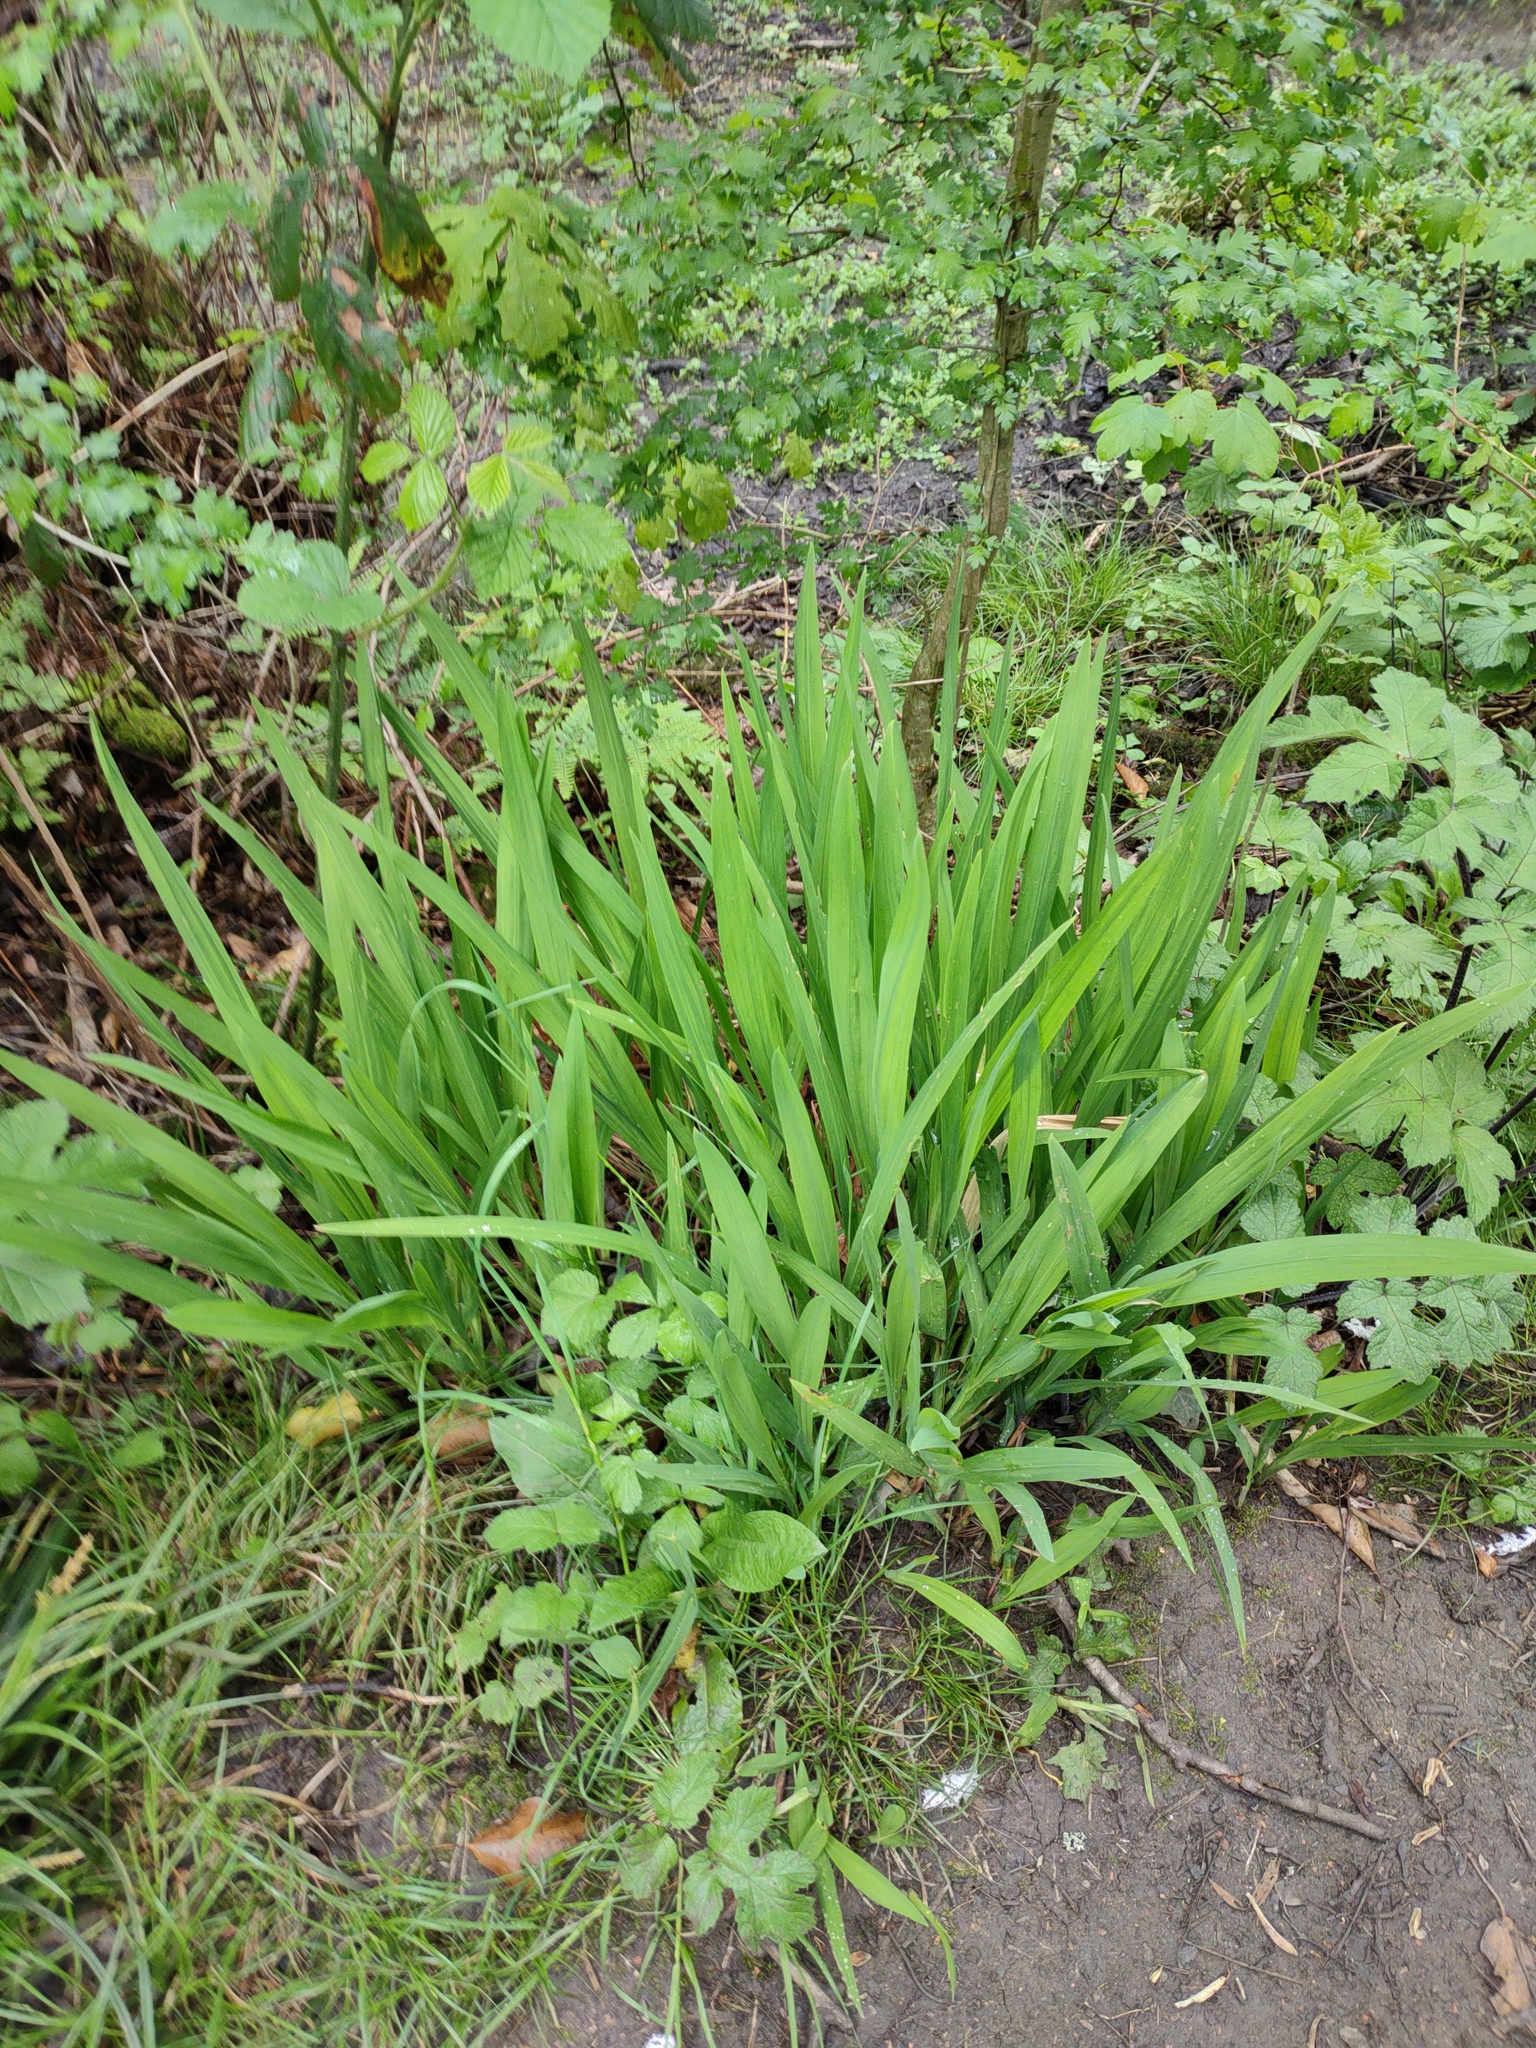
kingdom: Plantae
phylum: Tracheophyta
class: Liliopsida
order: Asparagales
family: Iridaceae
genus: Iris
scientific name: Iris pseudacorus
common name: Yellow flag
